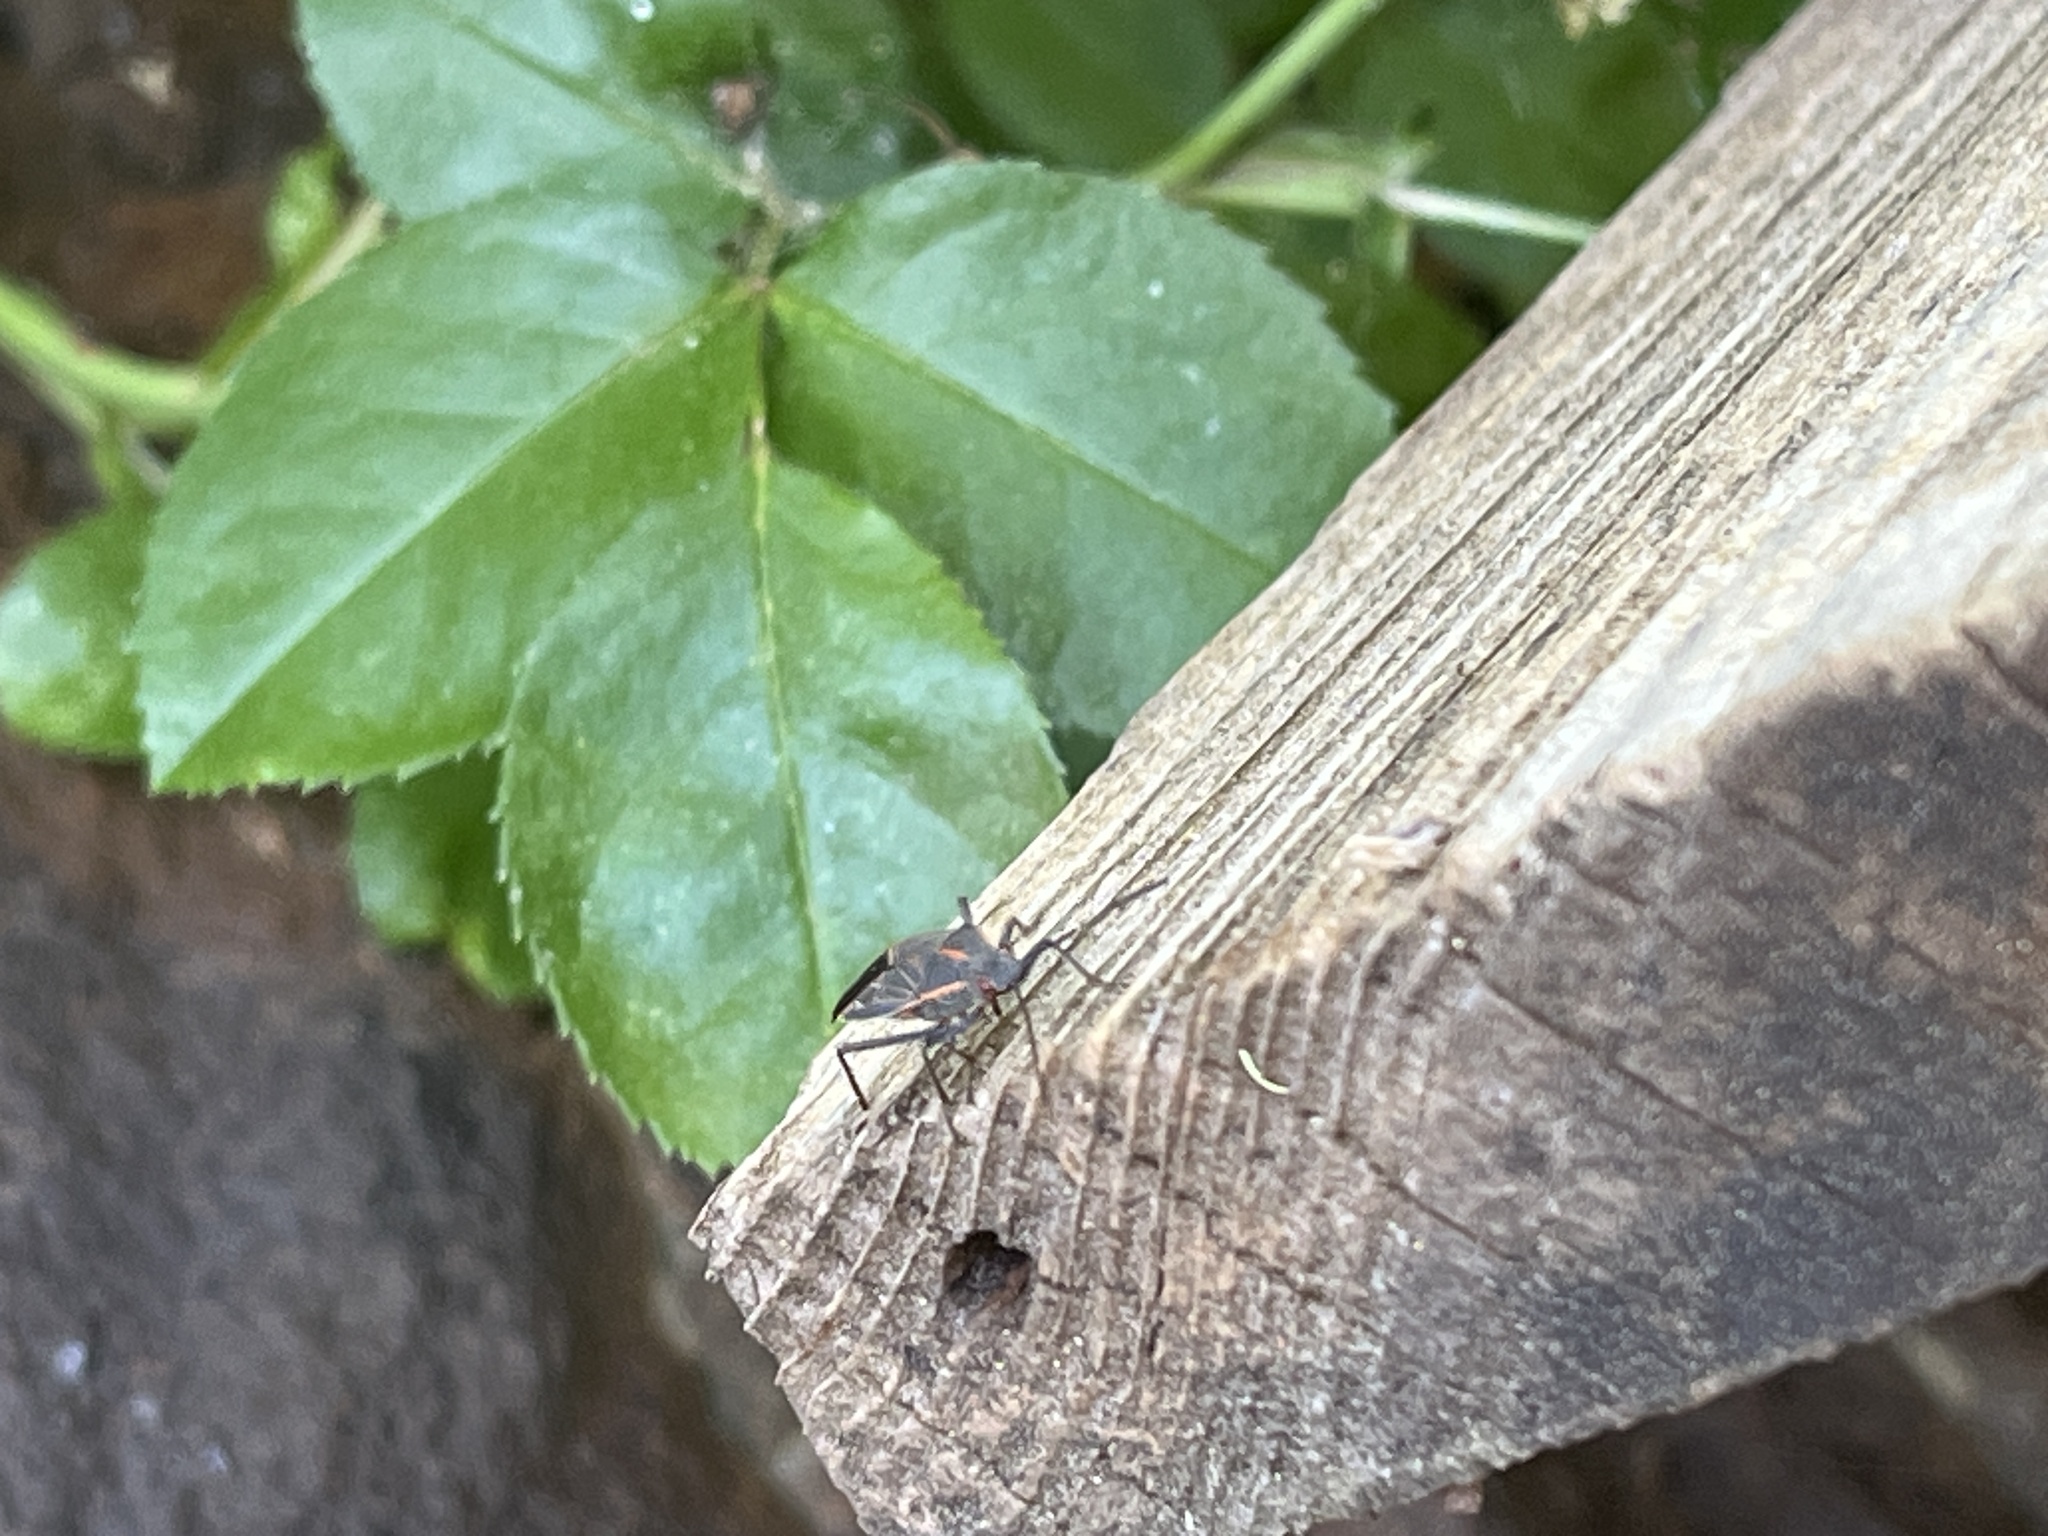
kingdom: Animalia
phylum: Arthropoda
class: Insecta
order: Hemiptera
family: Rhopalidae
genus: Boisea
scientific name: Boisea rubrolineata
